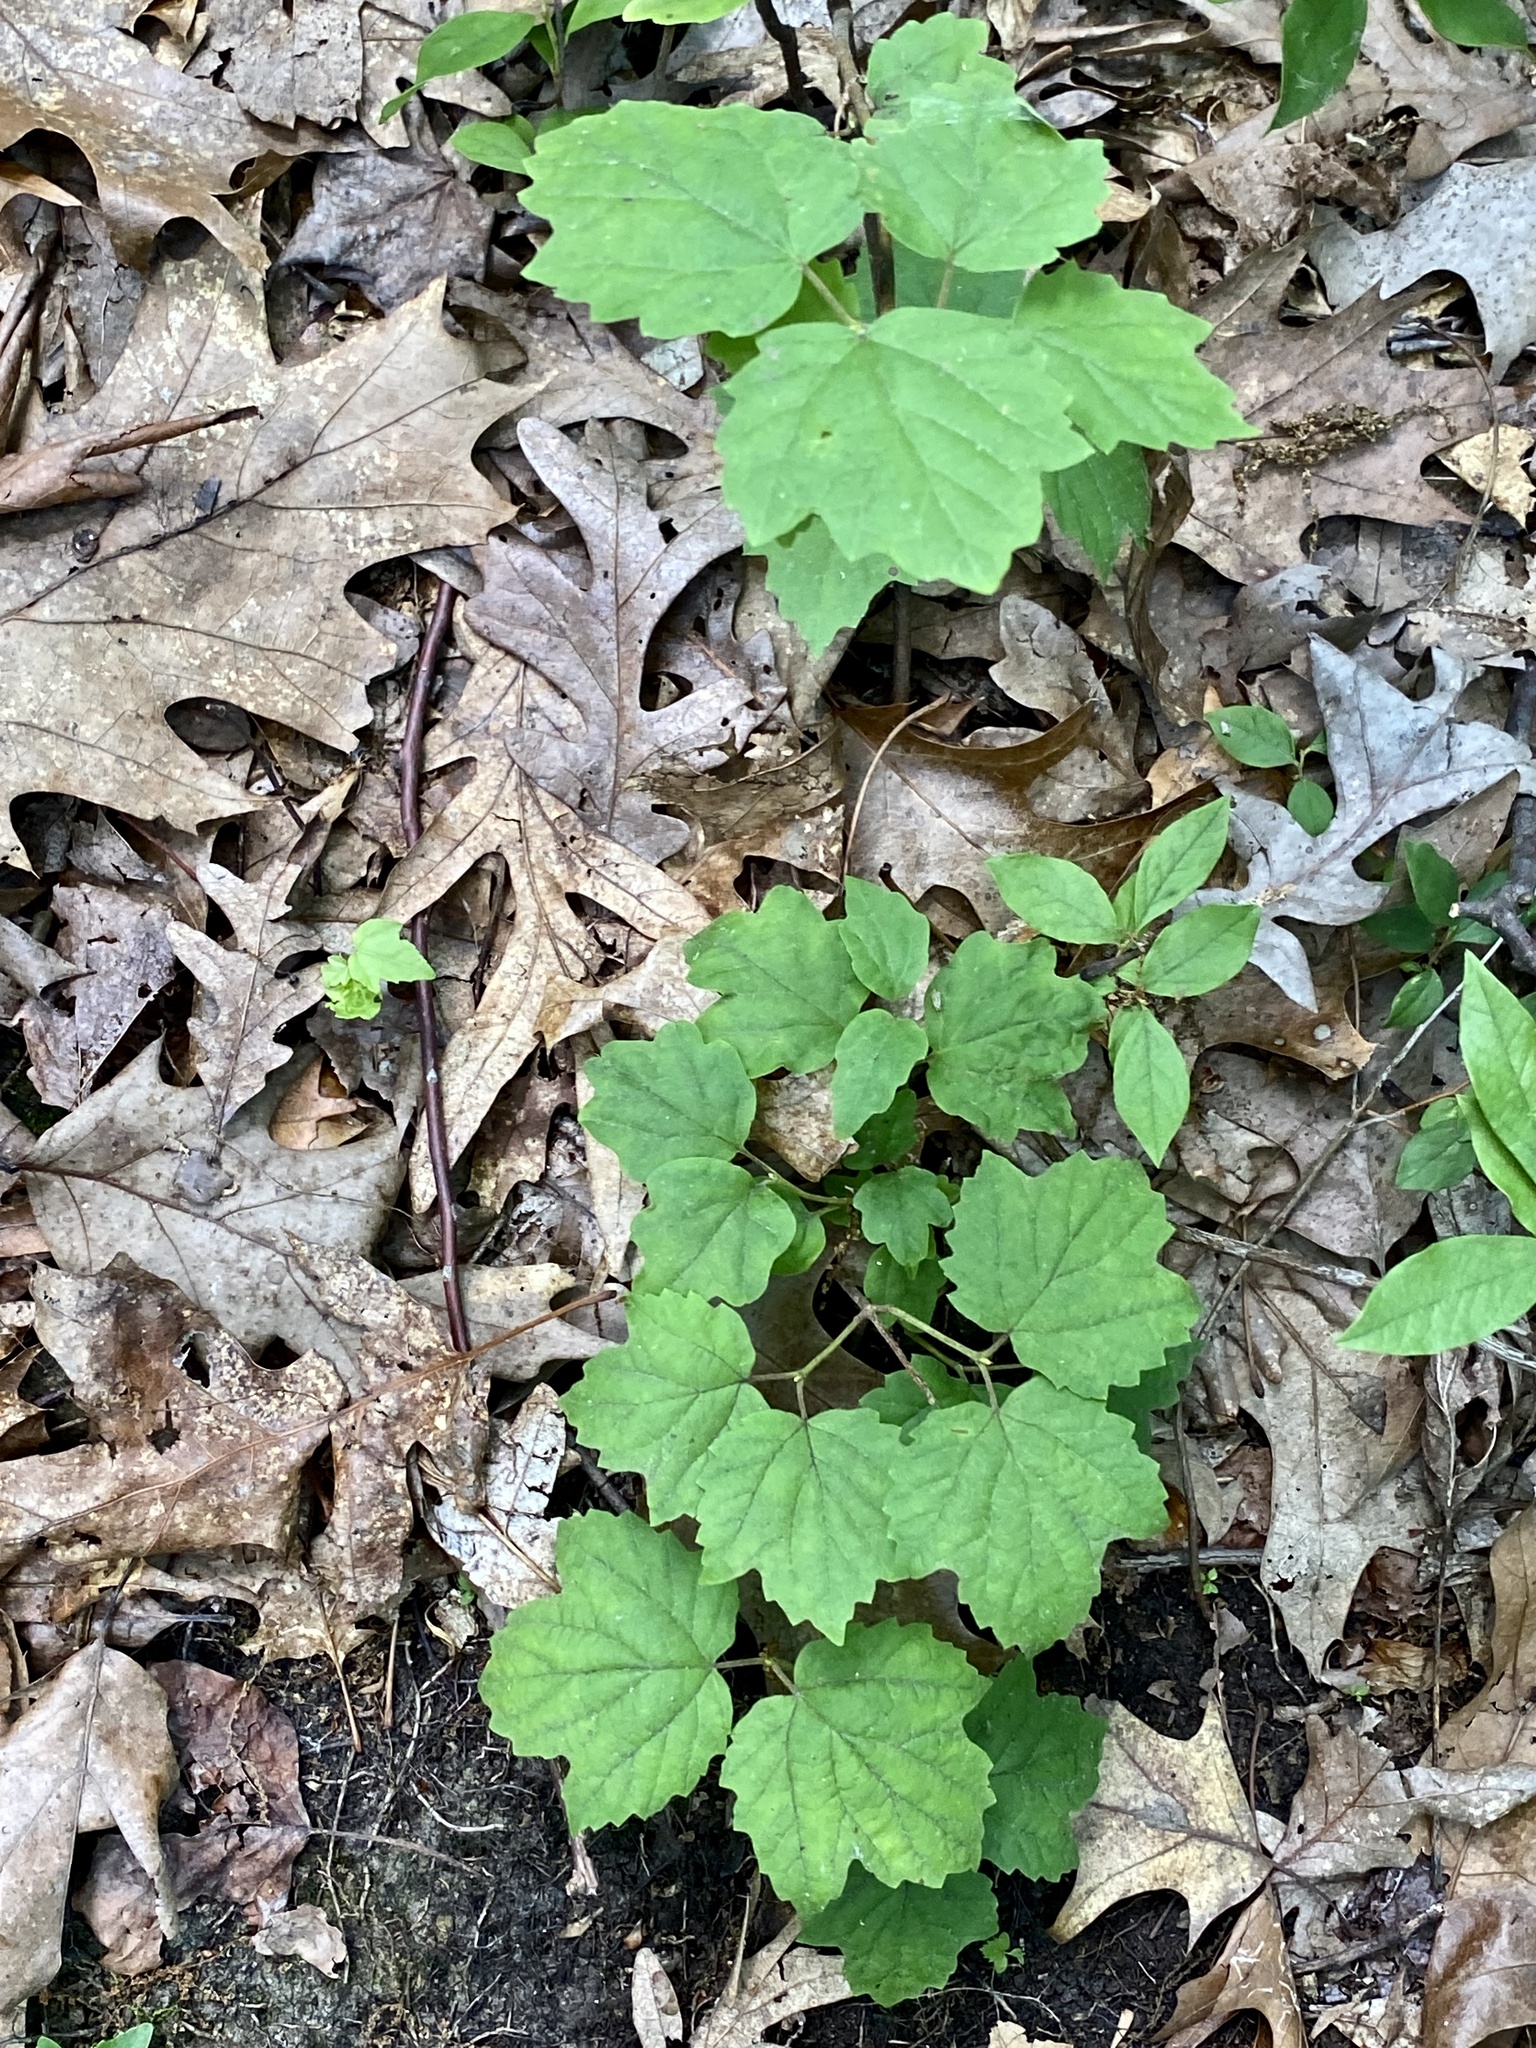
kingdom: Plantae
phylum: Tracheophyta
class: Magnoliopsida
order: Dipsacales
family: Viburnaceae
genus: Viburnum
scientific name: Viburnum acerifolium
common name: Dockmackie
